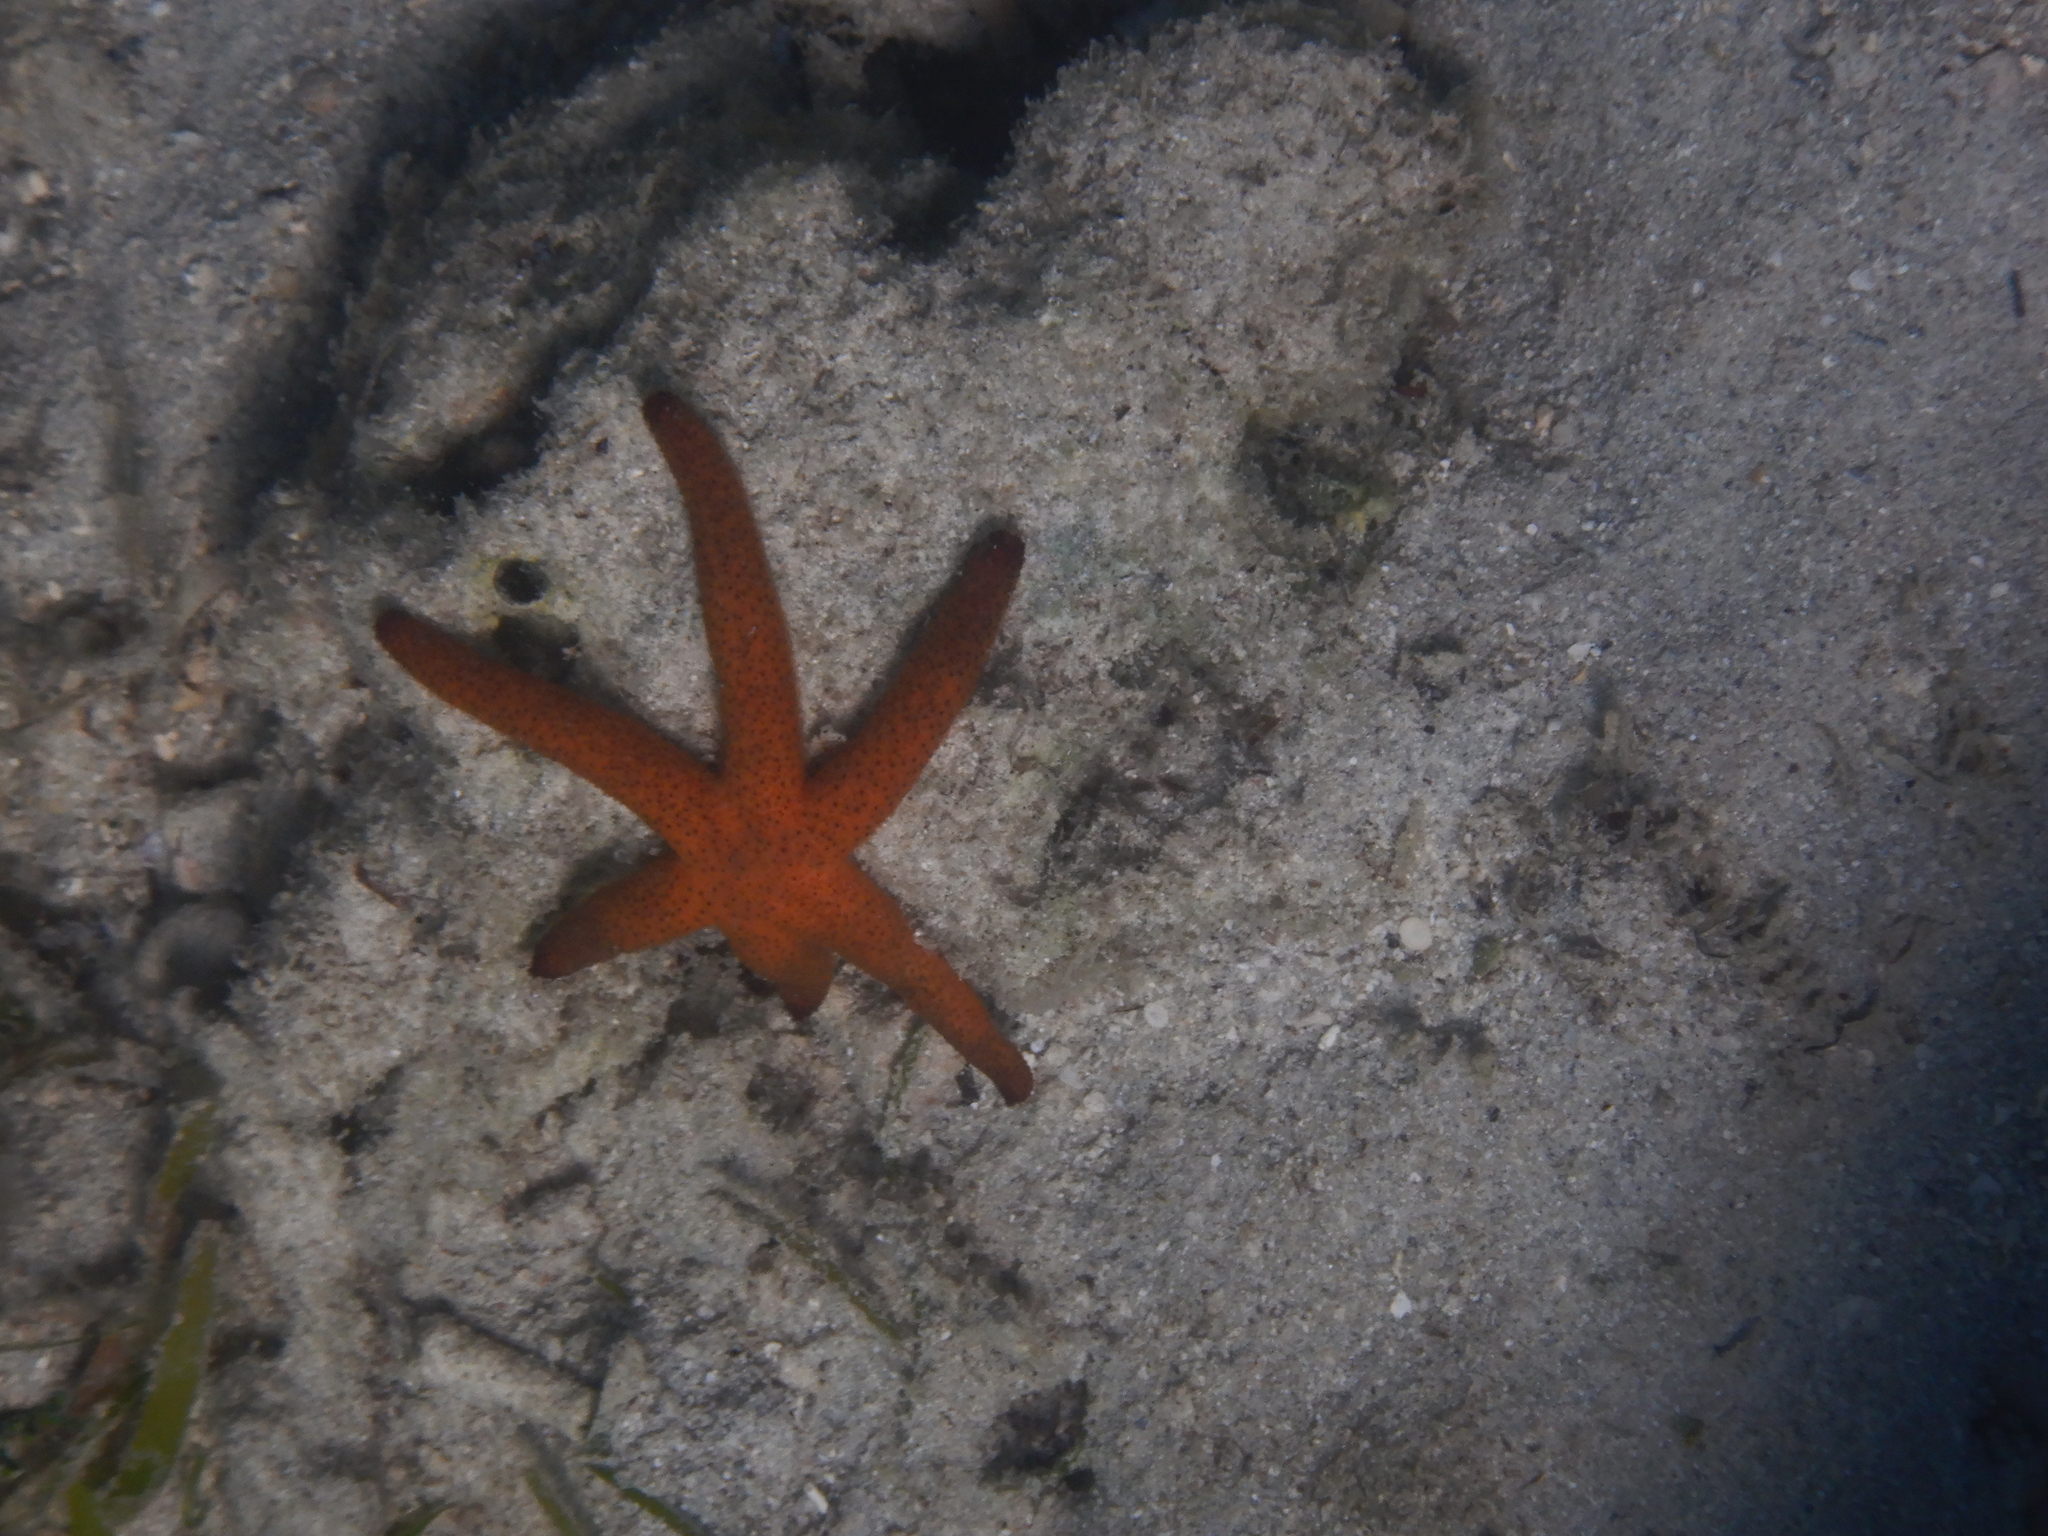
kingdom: Animalia
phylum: Echinodermata
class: Asteroidea
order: Spinulosida
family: Echinasteridae
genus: Echinaster
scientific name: Echinaster luzonicus
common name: Luzon seastar
